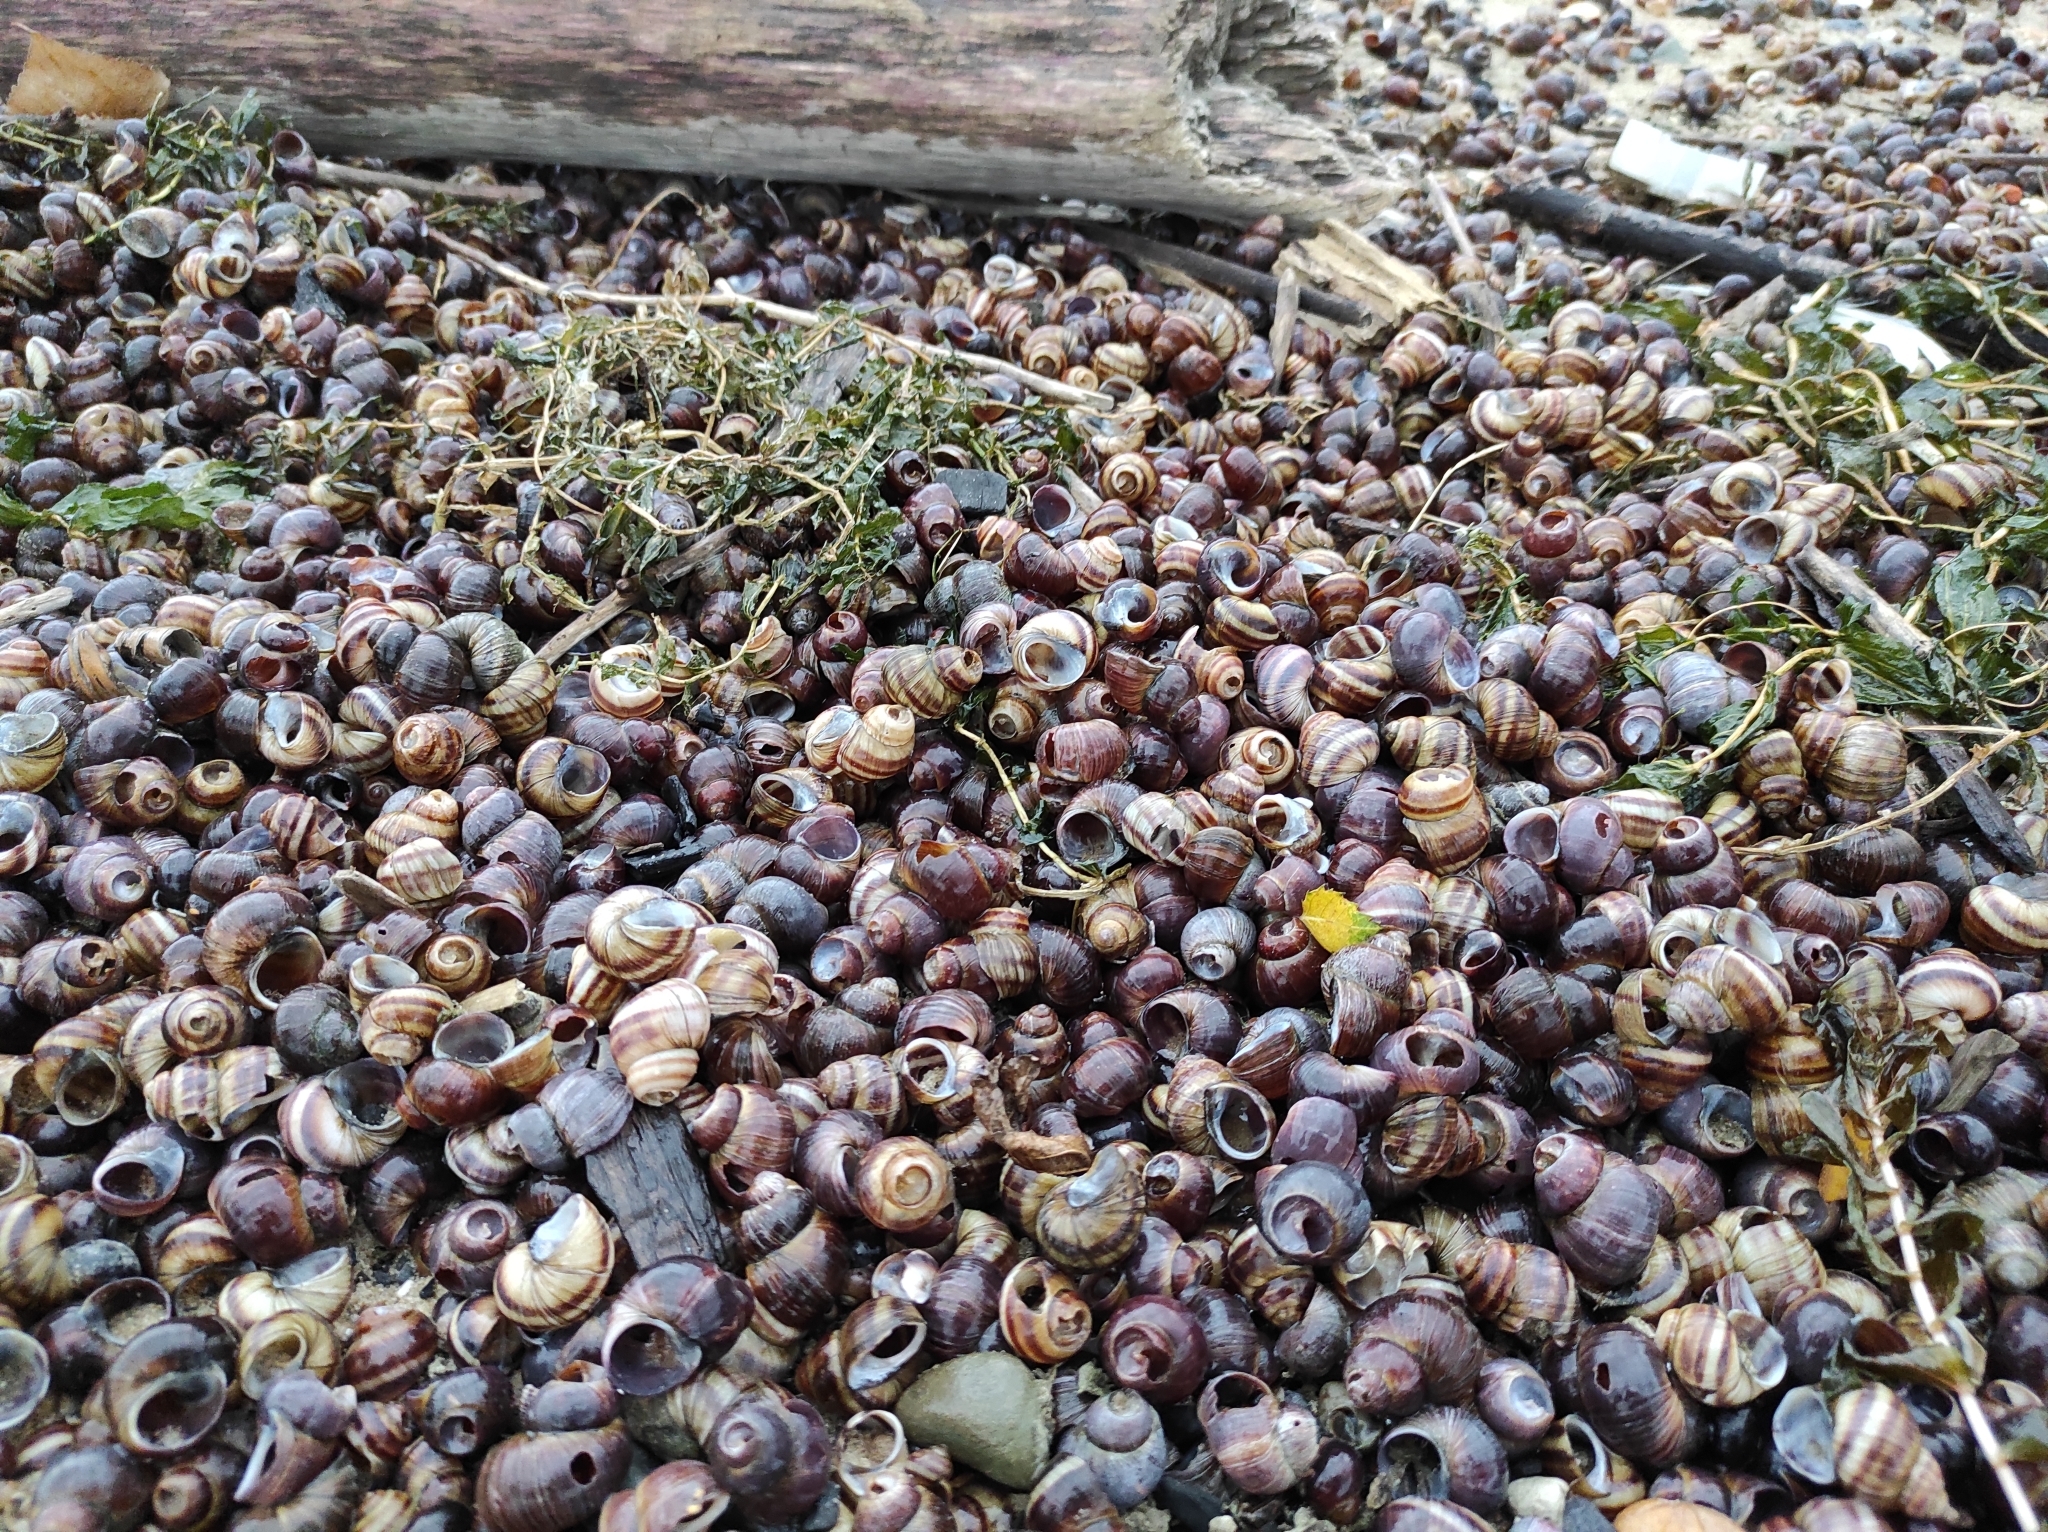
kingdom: Animalia
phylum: Mollusca
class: Gastropoda
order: Architaenioglossa
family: Viviparidae
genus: Viviparus
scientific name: Viviparus viviparus
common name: River snail
